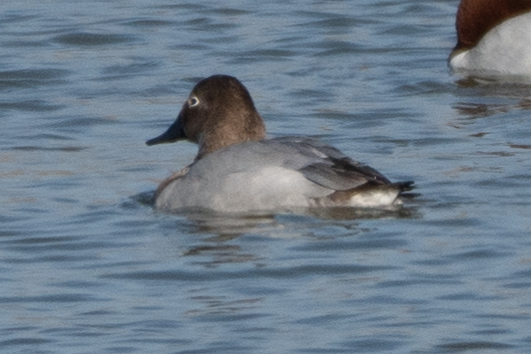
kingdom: Animalia
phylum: Chordata
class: Aves
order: Anseriformes
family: Anatidae
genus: Aythya
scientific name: Aythya valisineria
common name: Canvasback
